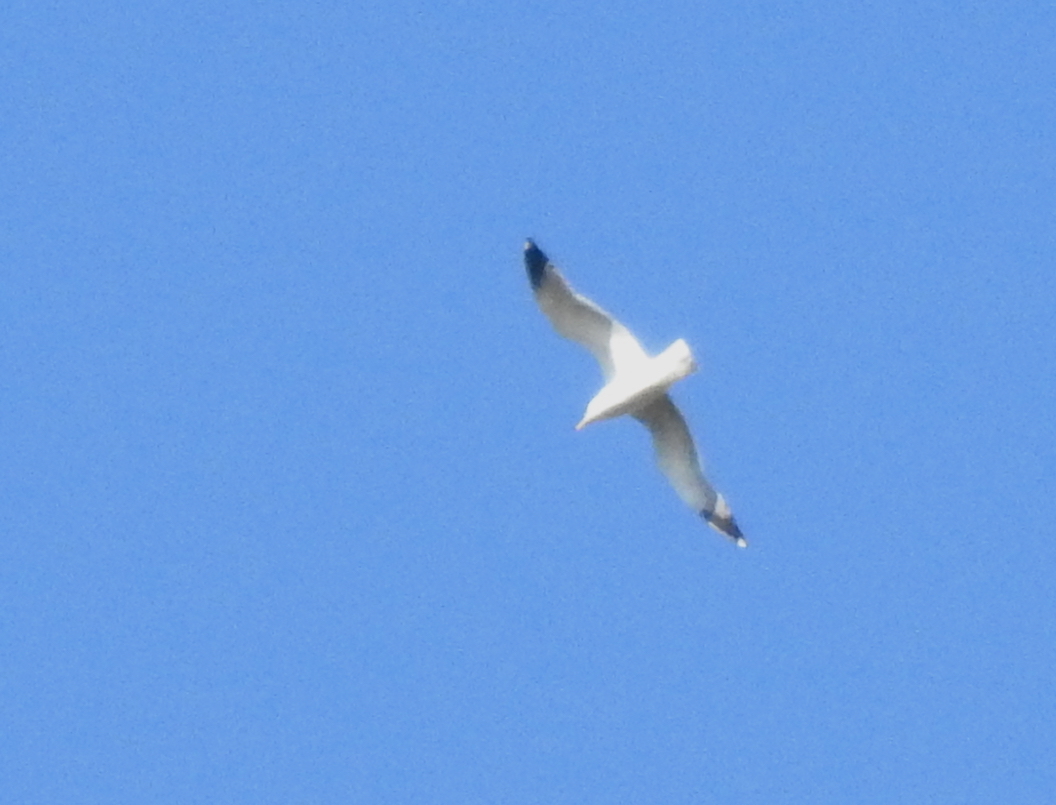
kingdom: Animalia
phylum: Chordata
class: Aves
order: Charadriiformes
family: Laridae
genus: Larus
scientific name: Larus californicus
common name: California gull
